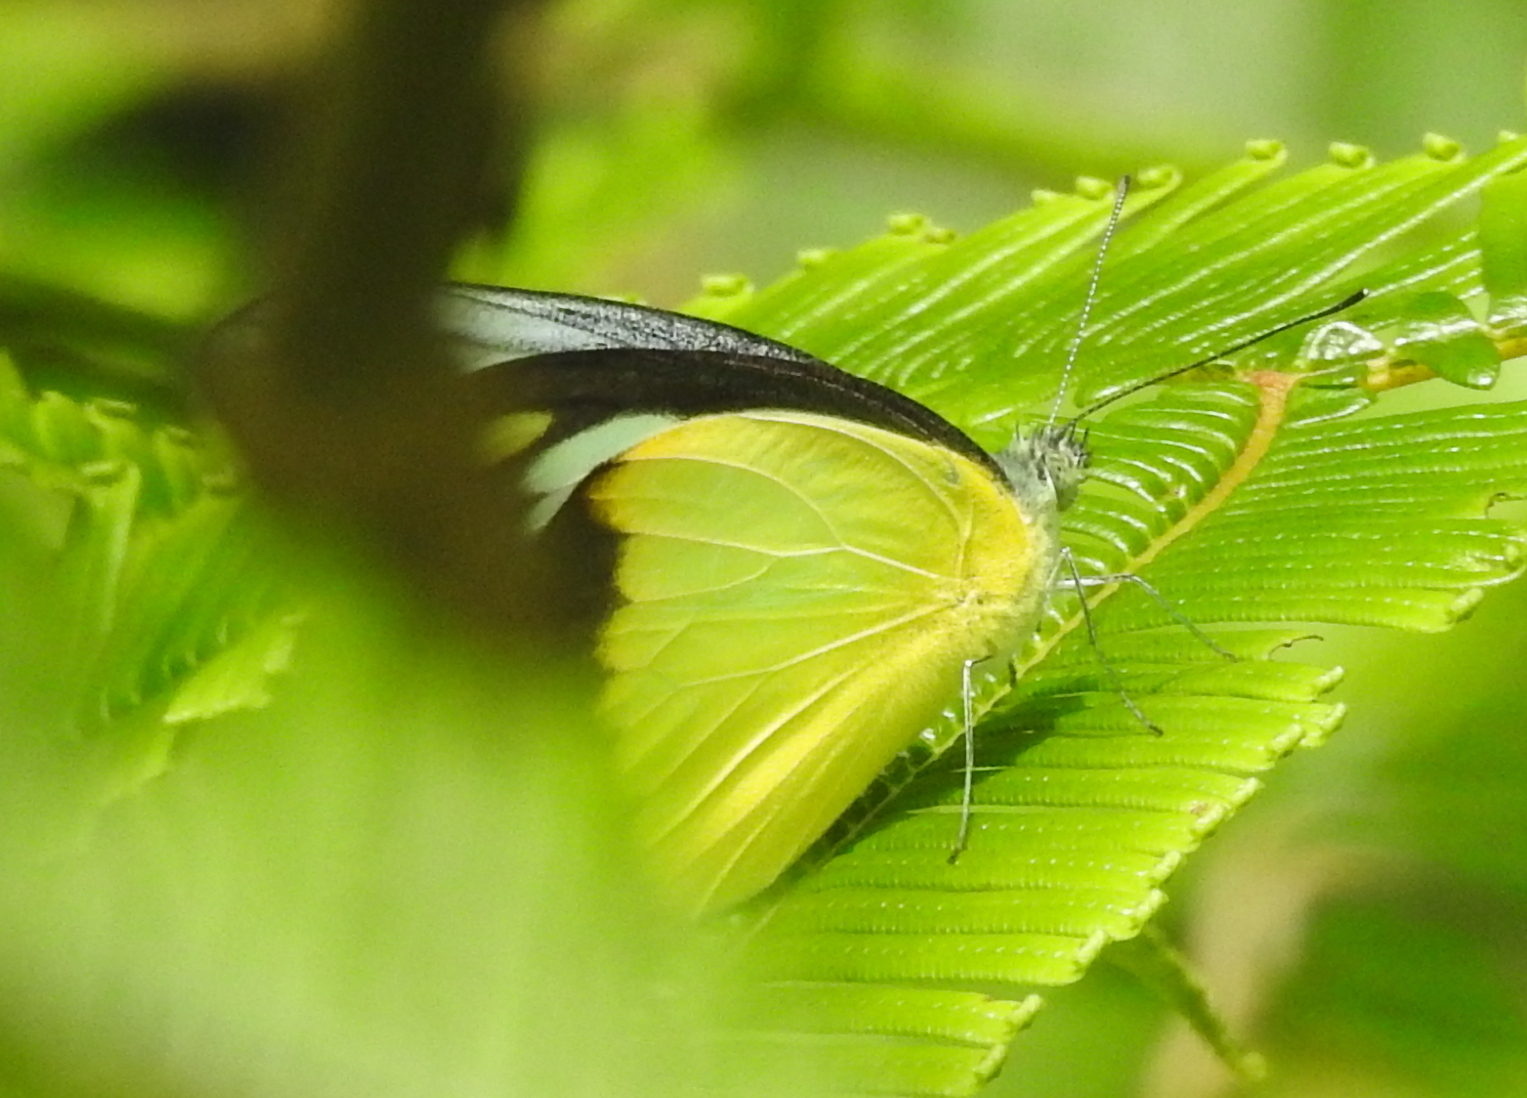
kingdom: Animalia
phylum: Arthropoda
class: Insecta
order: Lepidoptera
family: Pieridae
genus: Appias
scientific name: Appias lyncida
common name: Chocolate albatross
